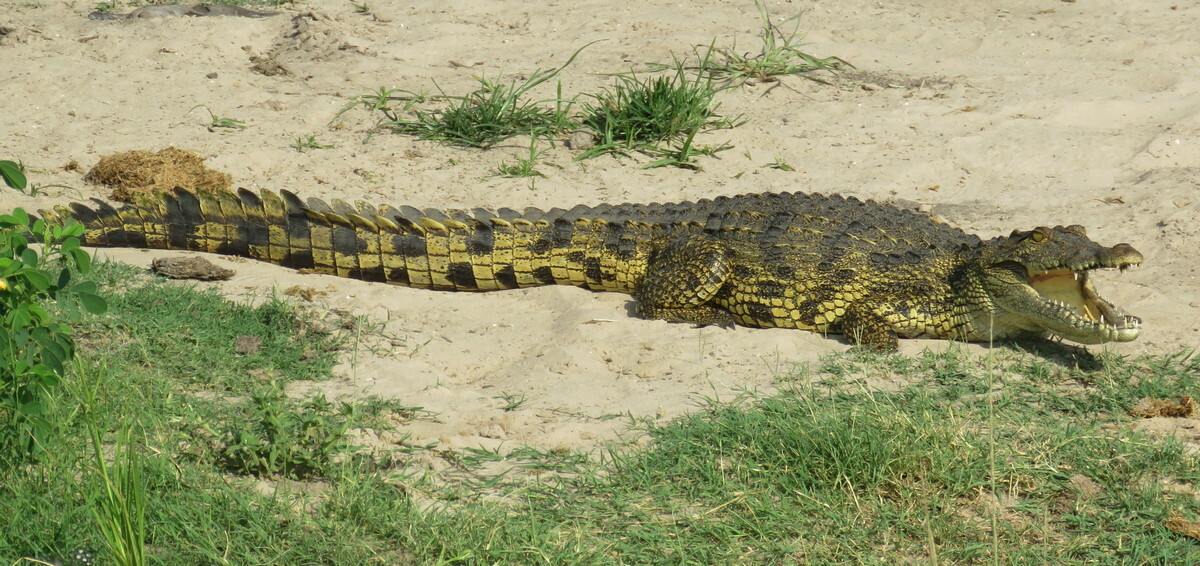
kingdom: Animalia
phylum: Chordata
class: Crocodylia
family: Crocodylidae
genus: Crocodylus
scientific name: Crocodylus niloticus
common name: Nile crocodile
